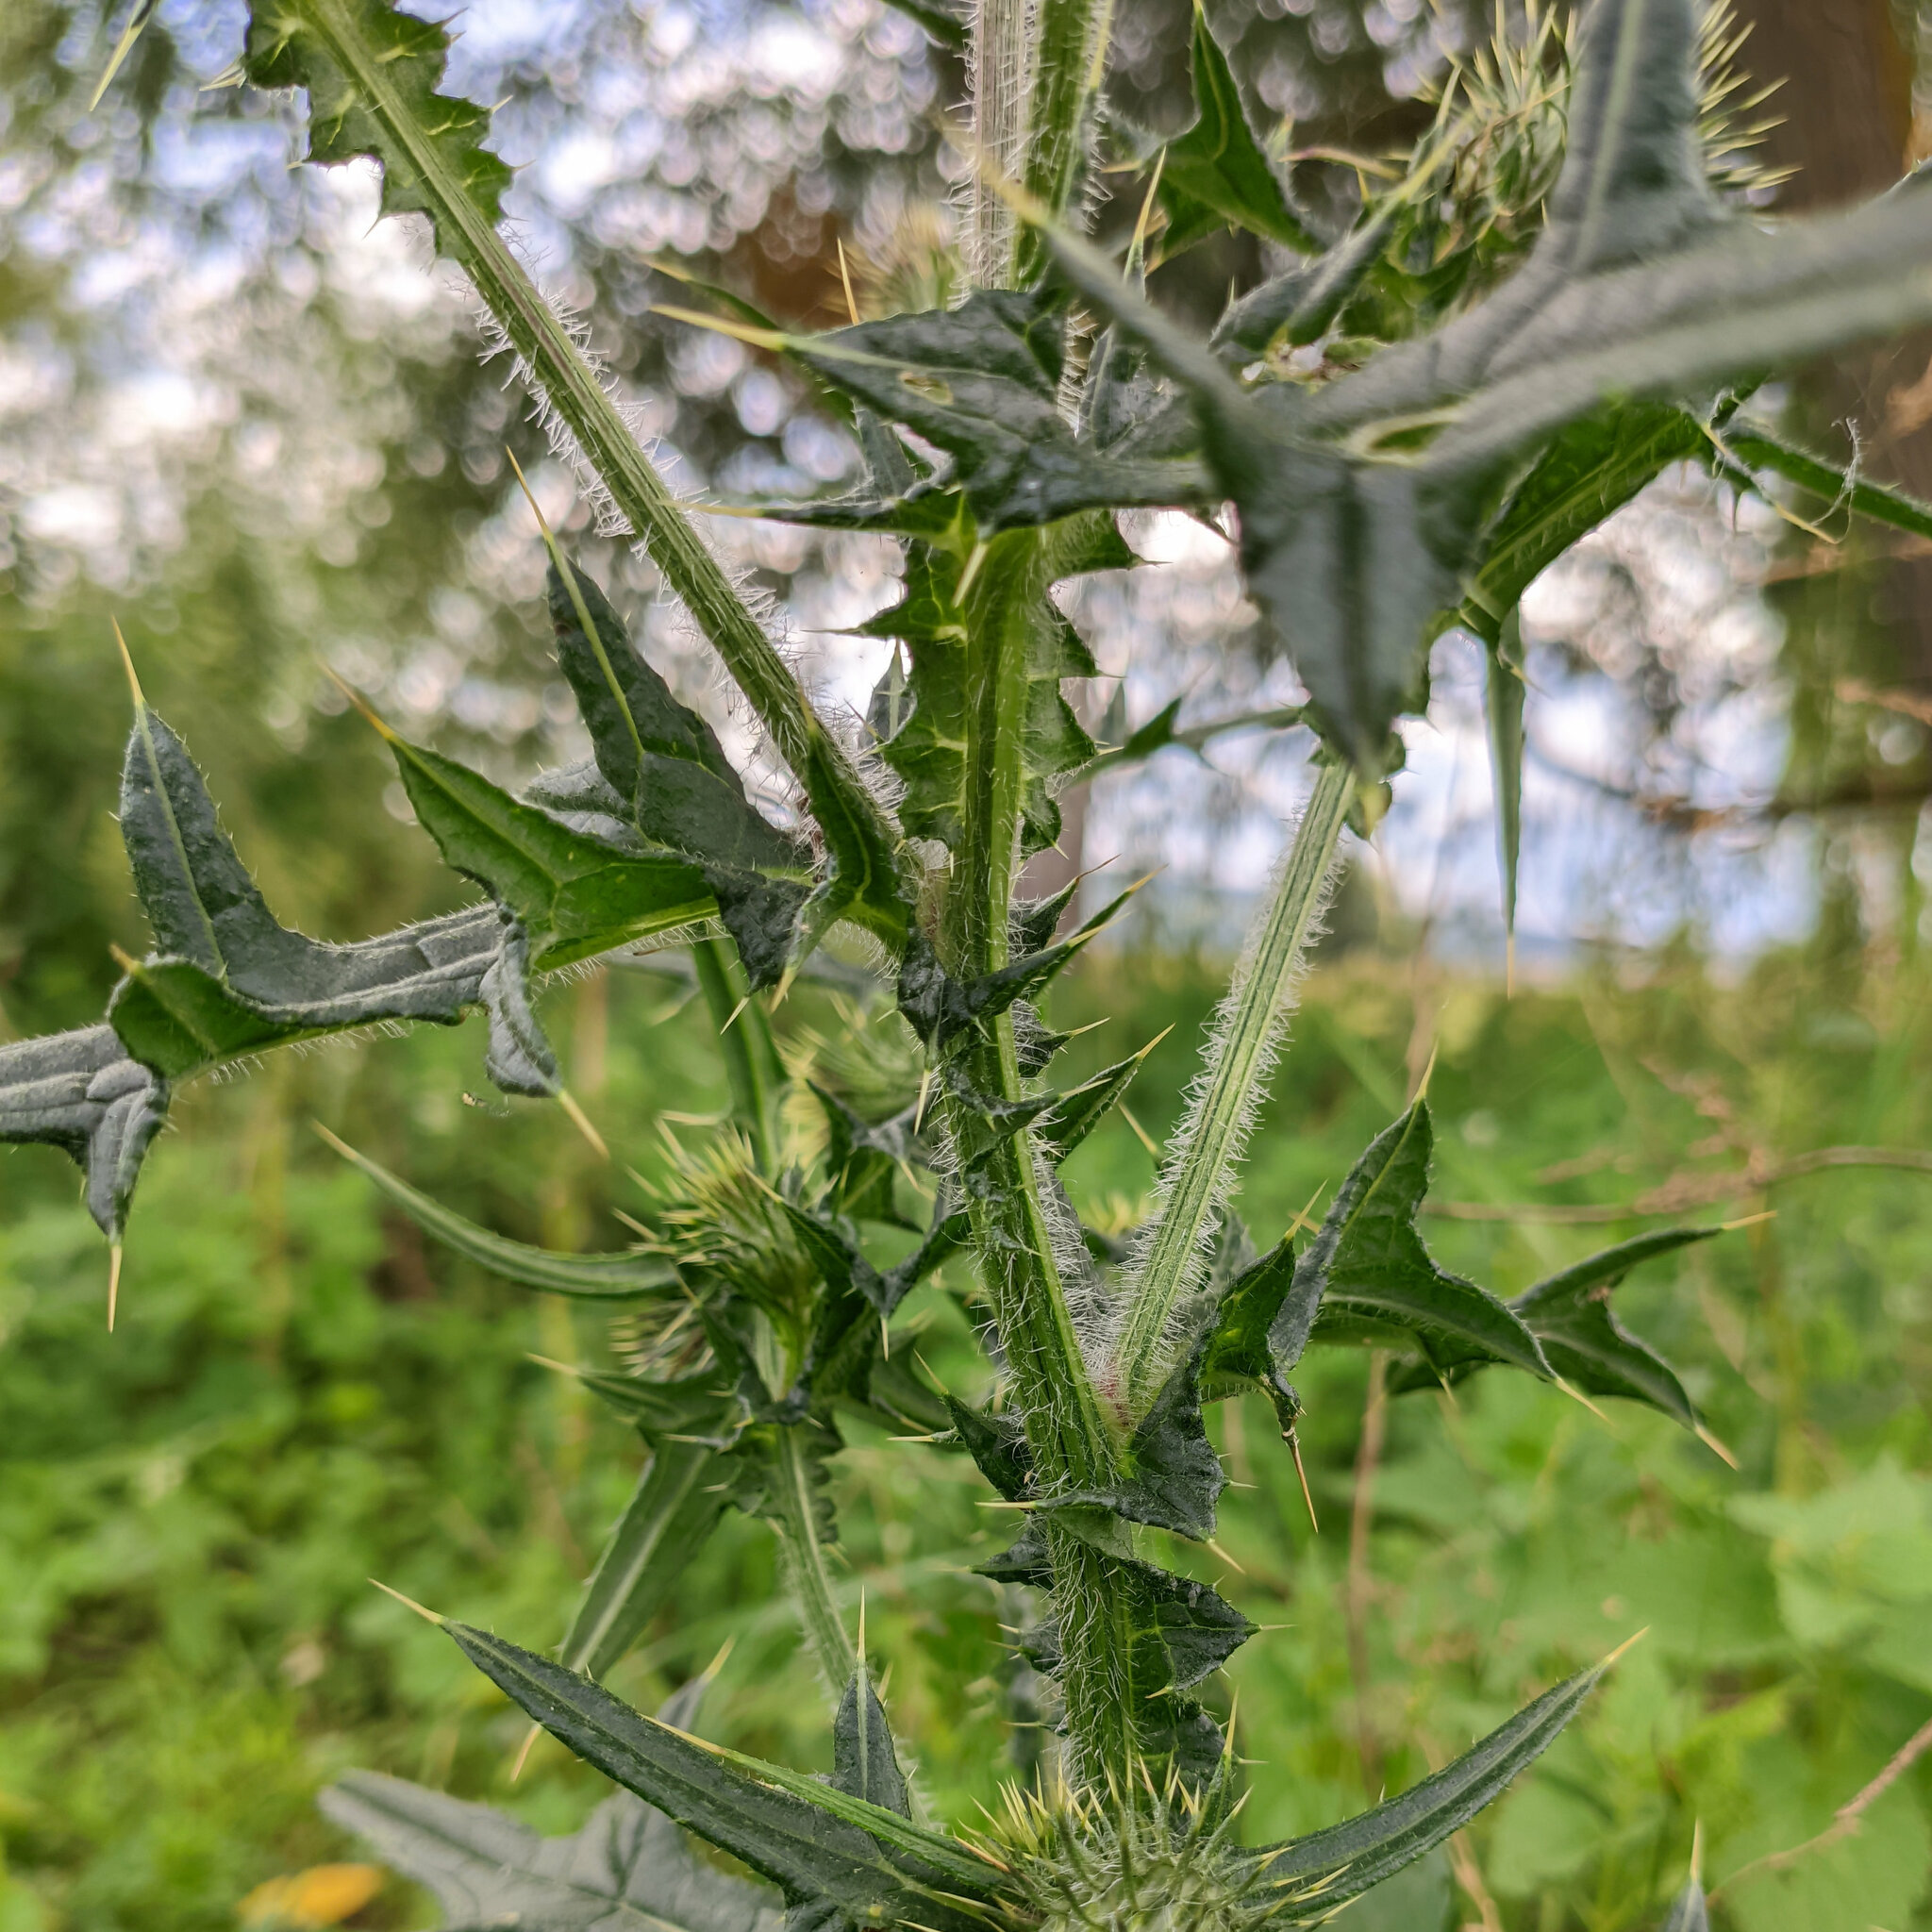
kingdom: Plantae
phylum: Tracheophyta
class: Magnoliopsida
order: Asterales
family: Asteraceae
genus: Cirsium
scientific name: Cirsium vulgare
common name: Bull thistle
